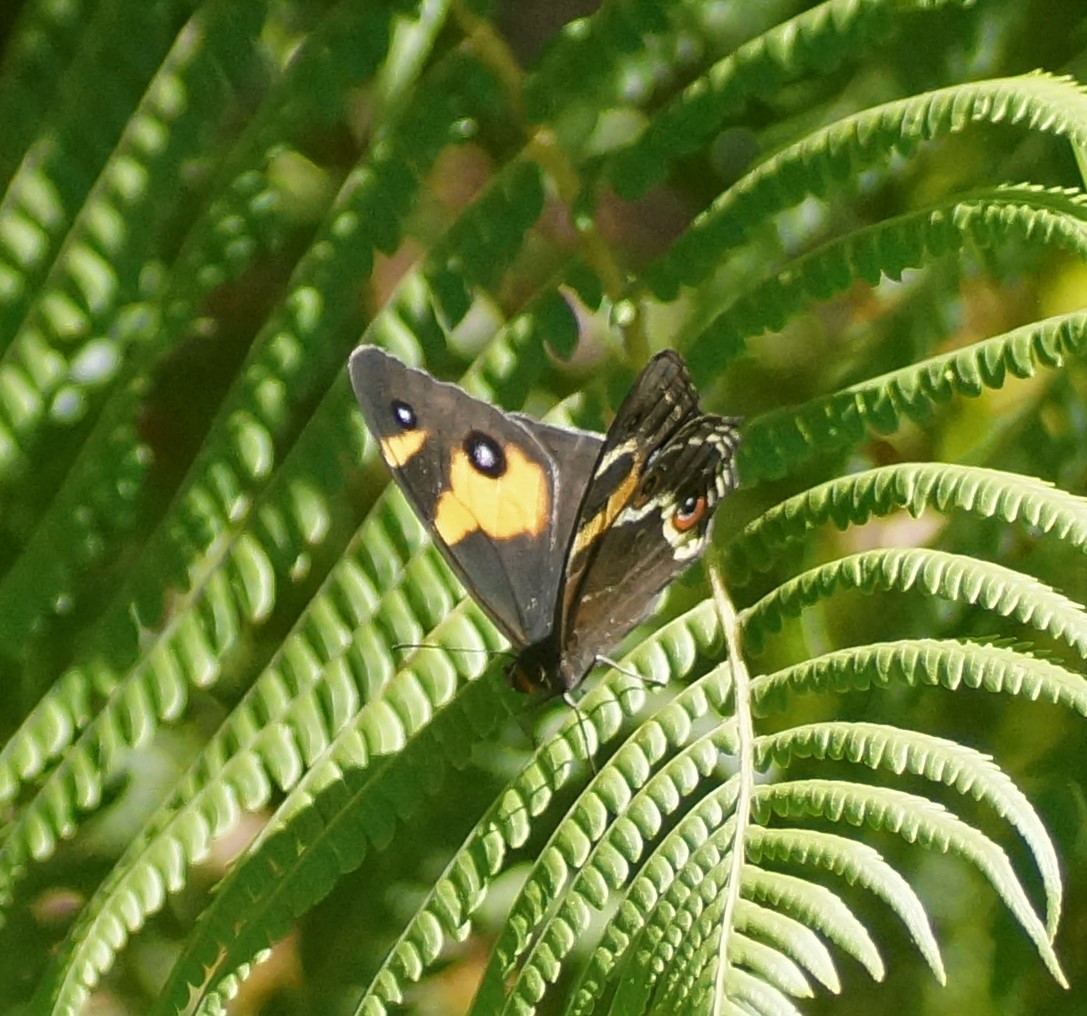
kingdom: Animalia
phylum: Arthropoda
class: Insecta
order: Lepidoptera
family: Nymphalidae
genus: Tisiphone
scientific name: Tisiphone abeona
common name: Swordgrass brown
